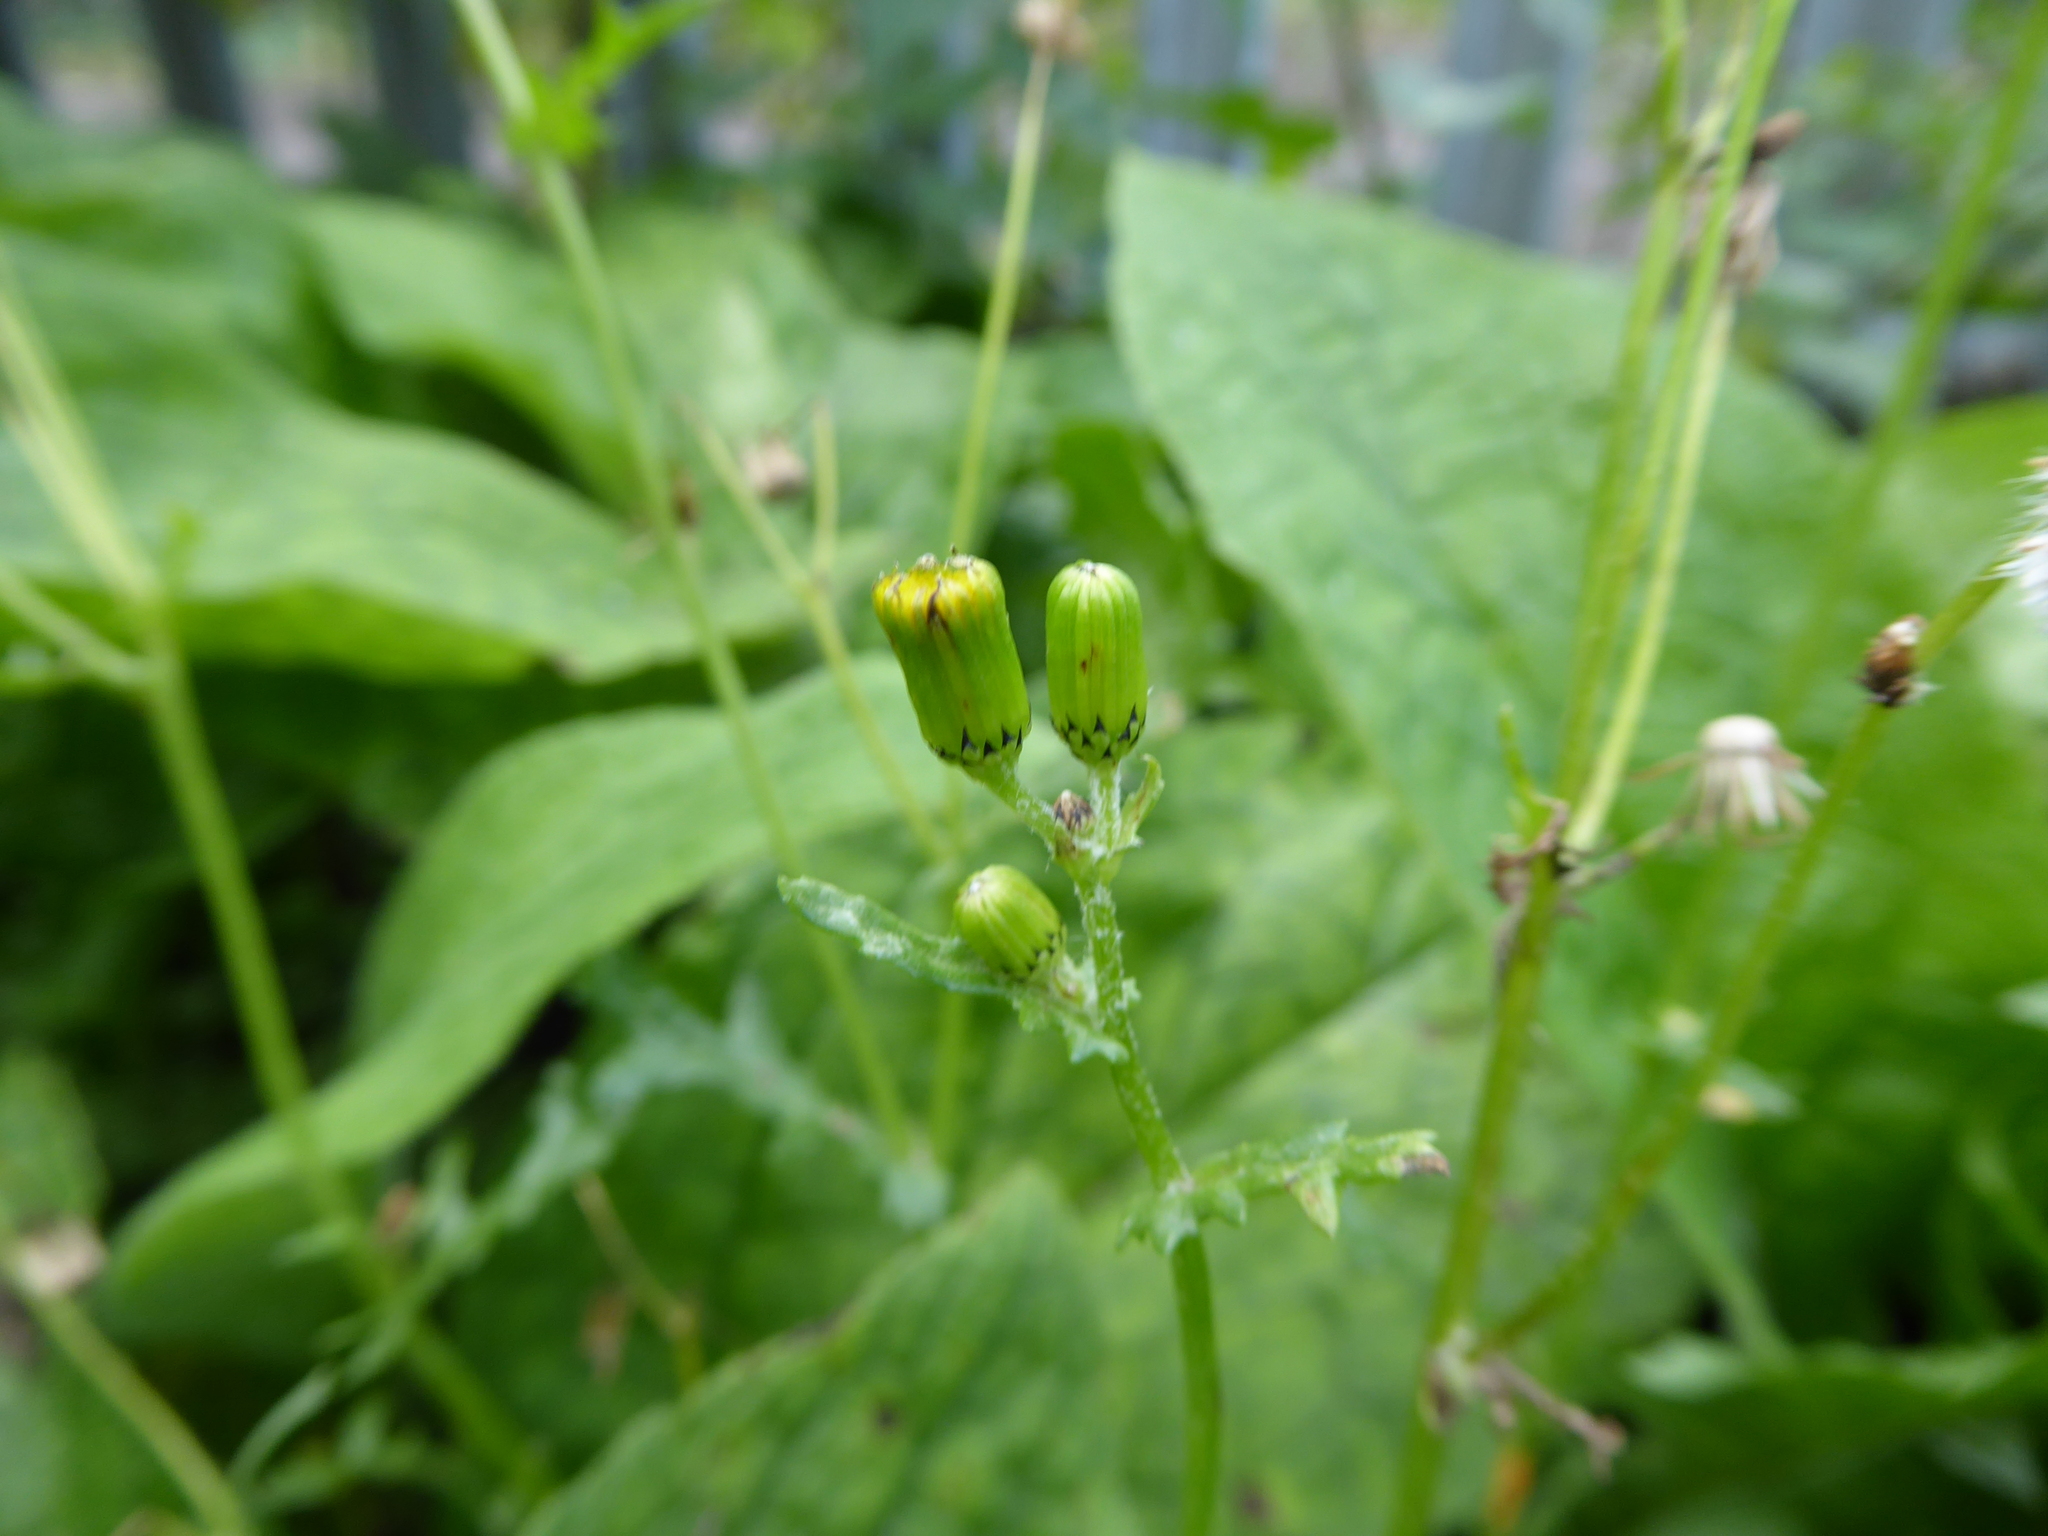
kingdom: Plantae
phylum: Tracheophyta
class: Magnoliopsida
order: Asterales
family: Asteraceae
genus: Senecio
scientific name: Senecio vulgaris
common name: Old-man-in-the-spring
